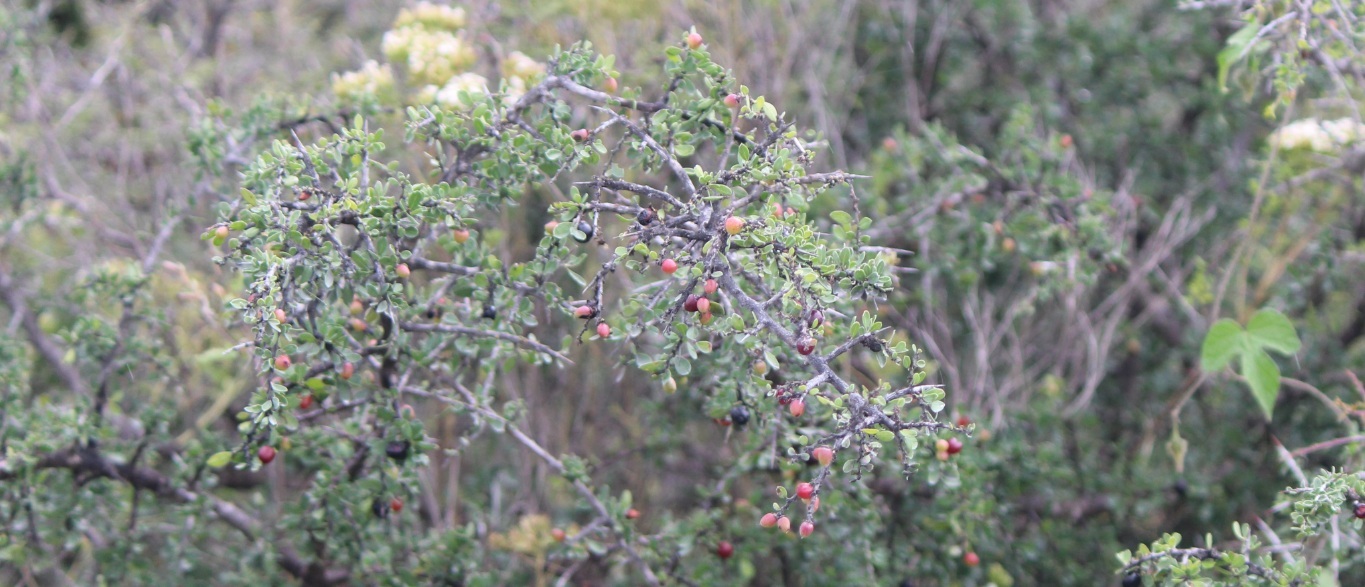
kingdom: Plantae
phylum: Tracheophyta
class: Magnoliopsida
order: Rosales
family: Rhamnaceae
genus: Condalia
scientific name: Condalia mexicana
